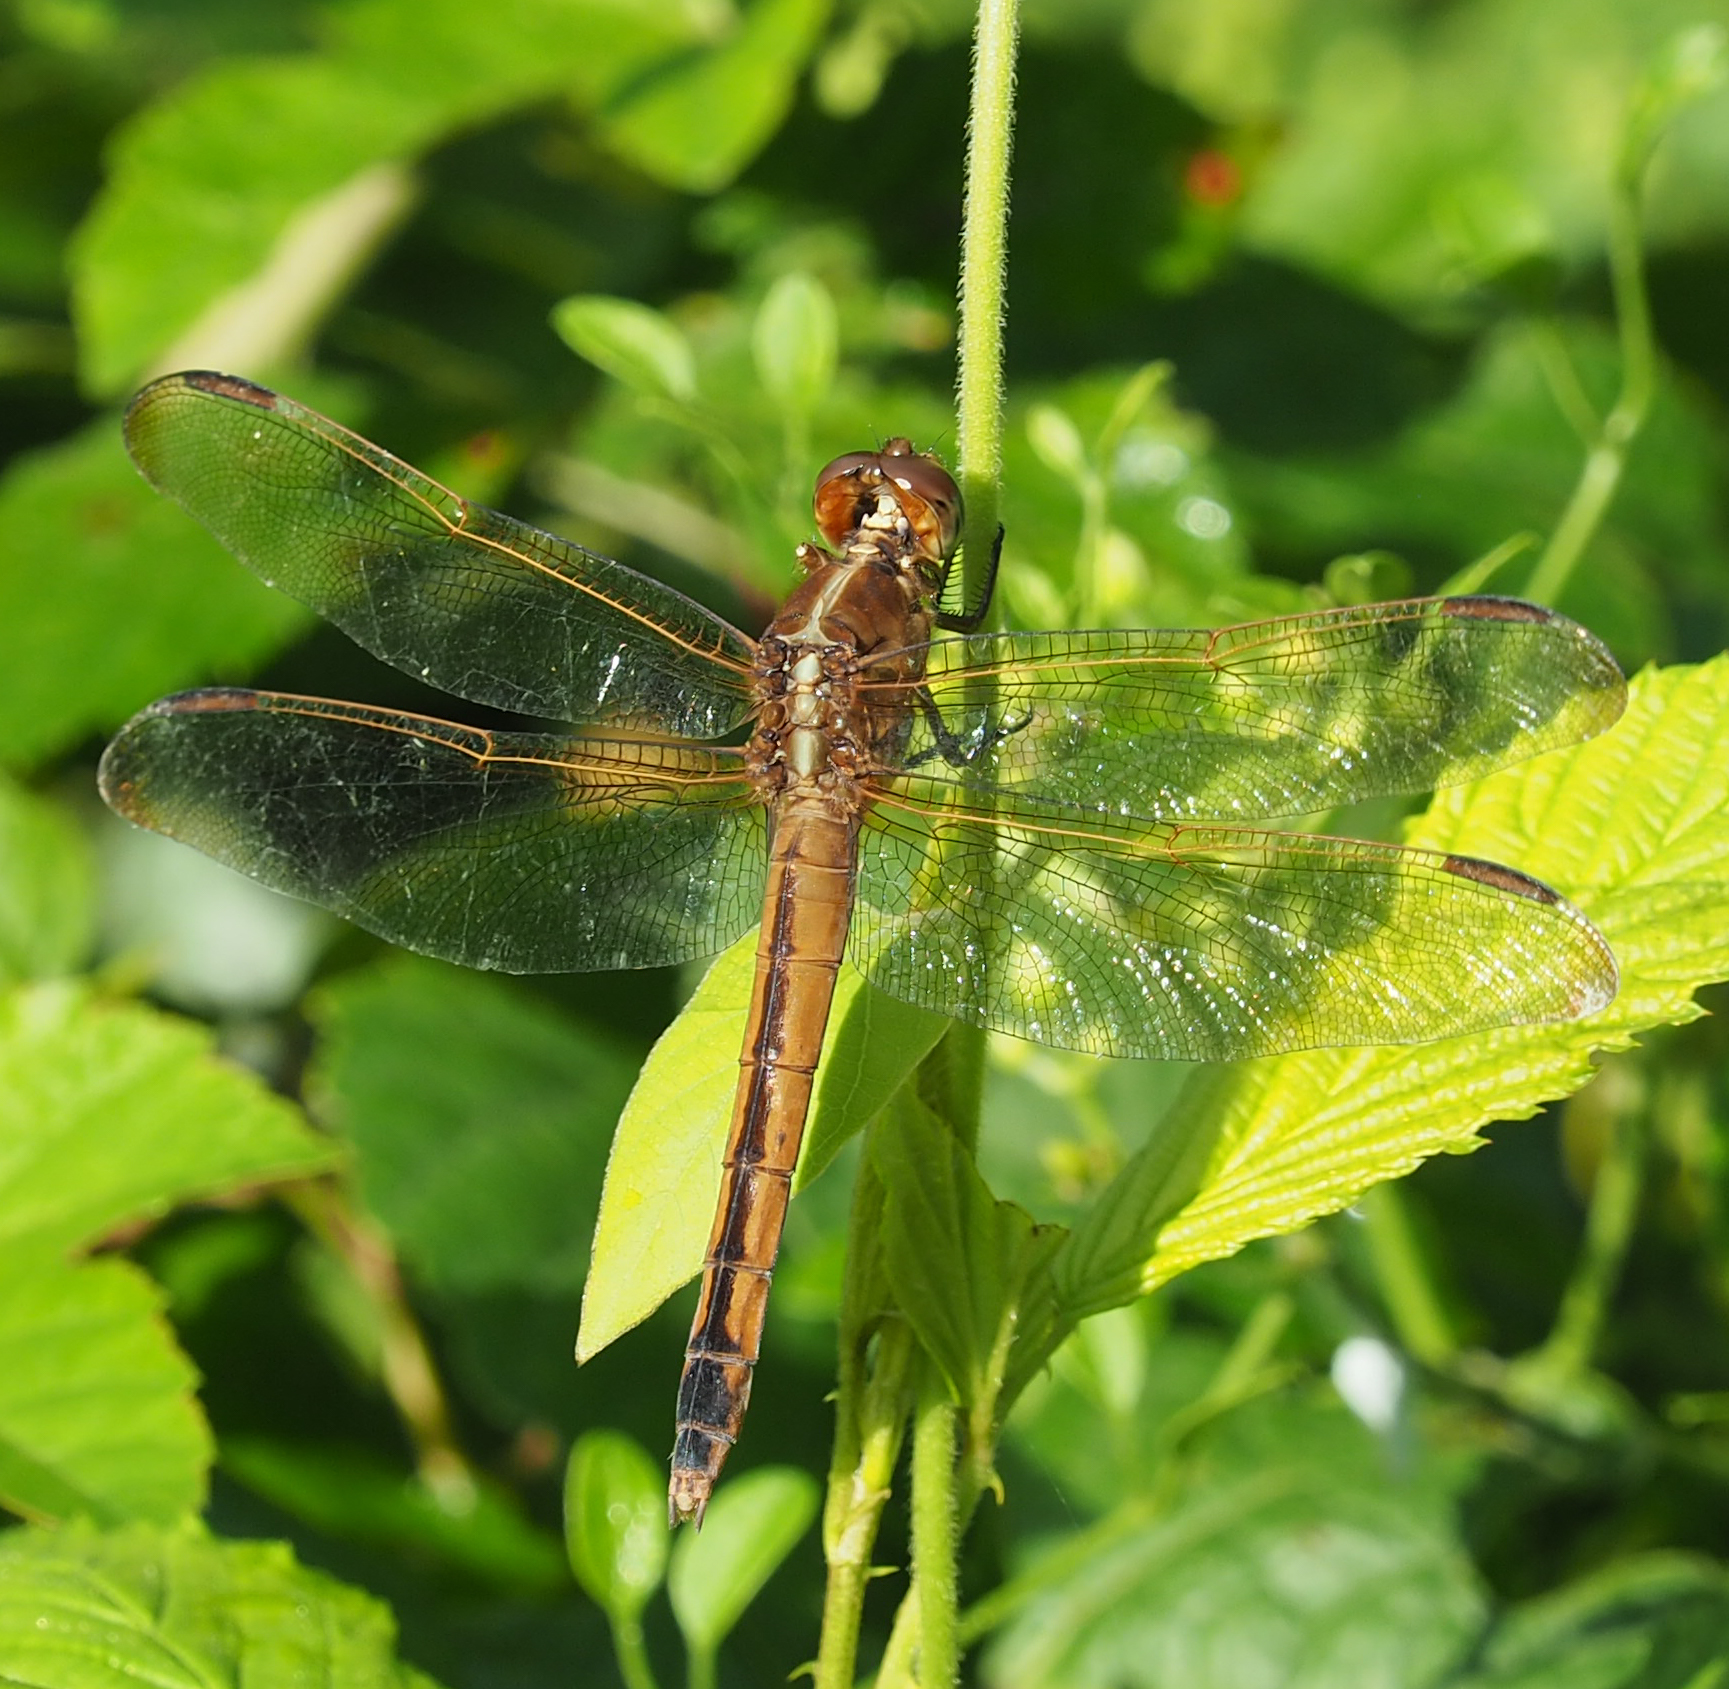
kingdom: Animalia
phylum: Arthropoda
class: Insecta
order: Odonata
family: Libellulidae
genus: Libellula
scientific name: Libellula needhami
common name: Needham's skimmer
